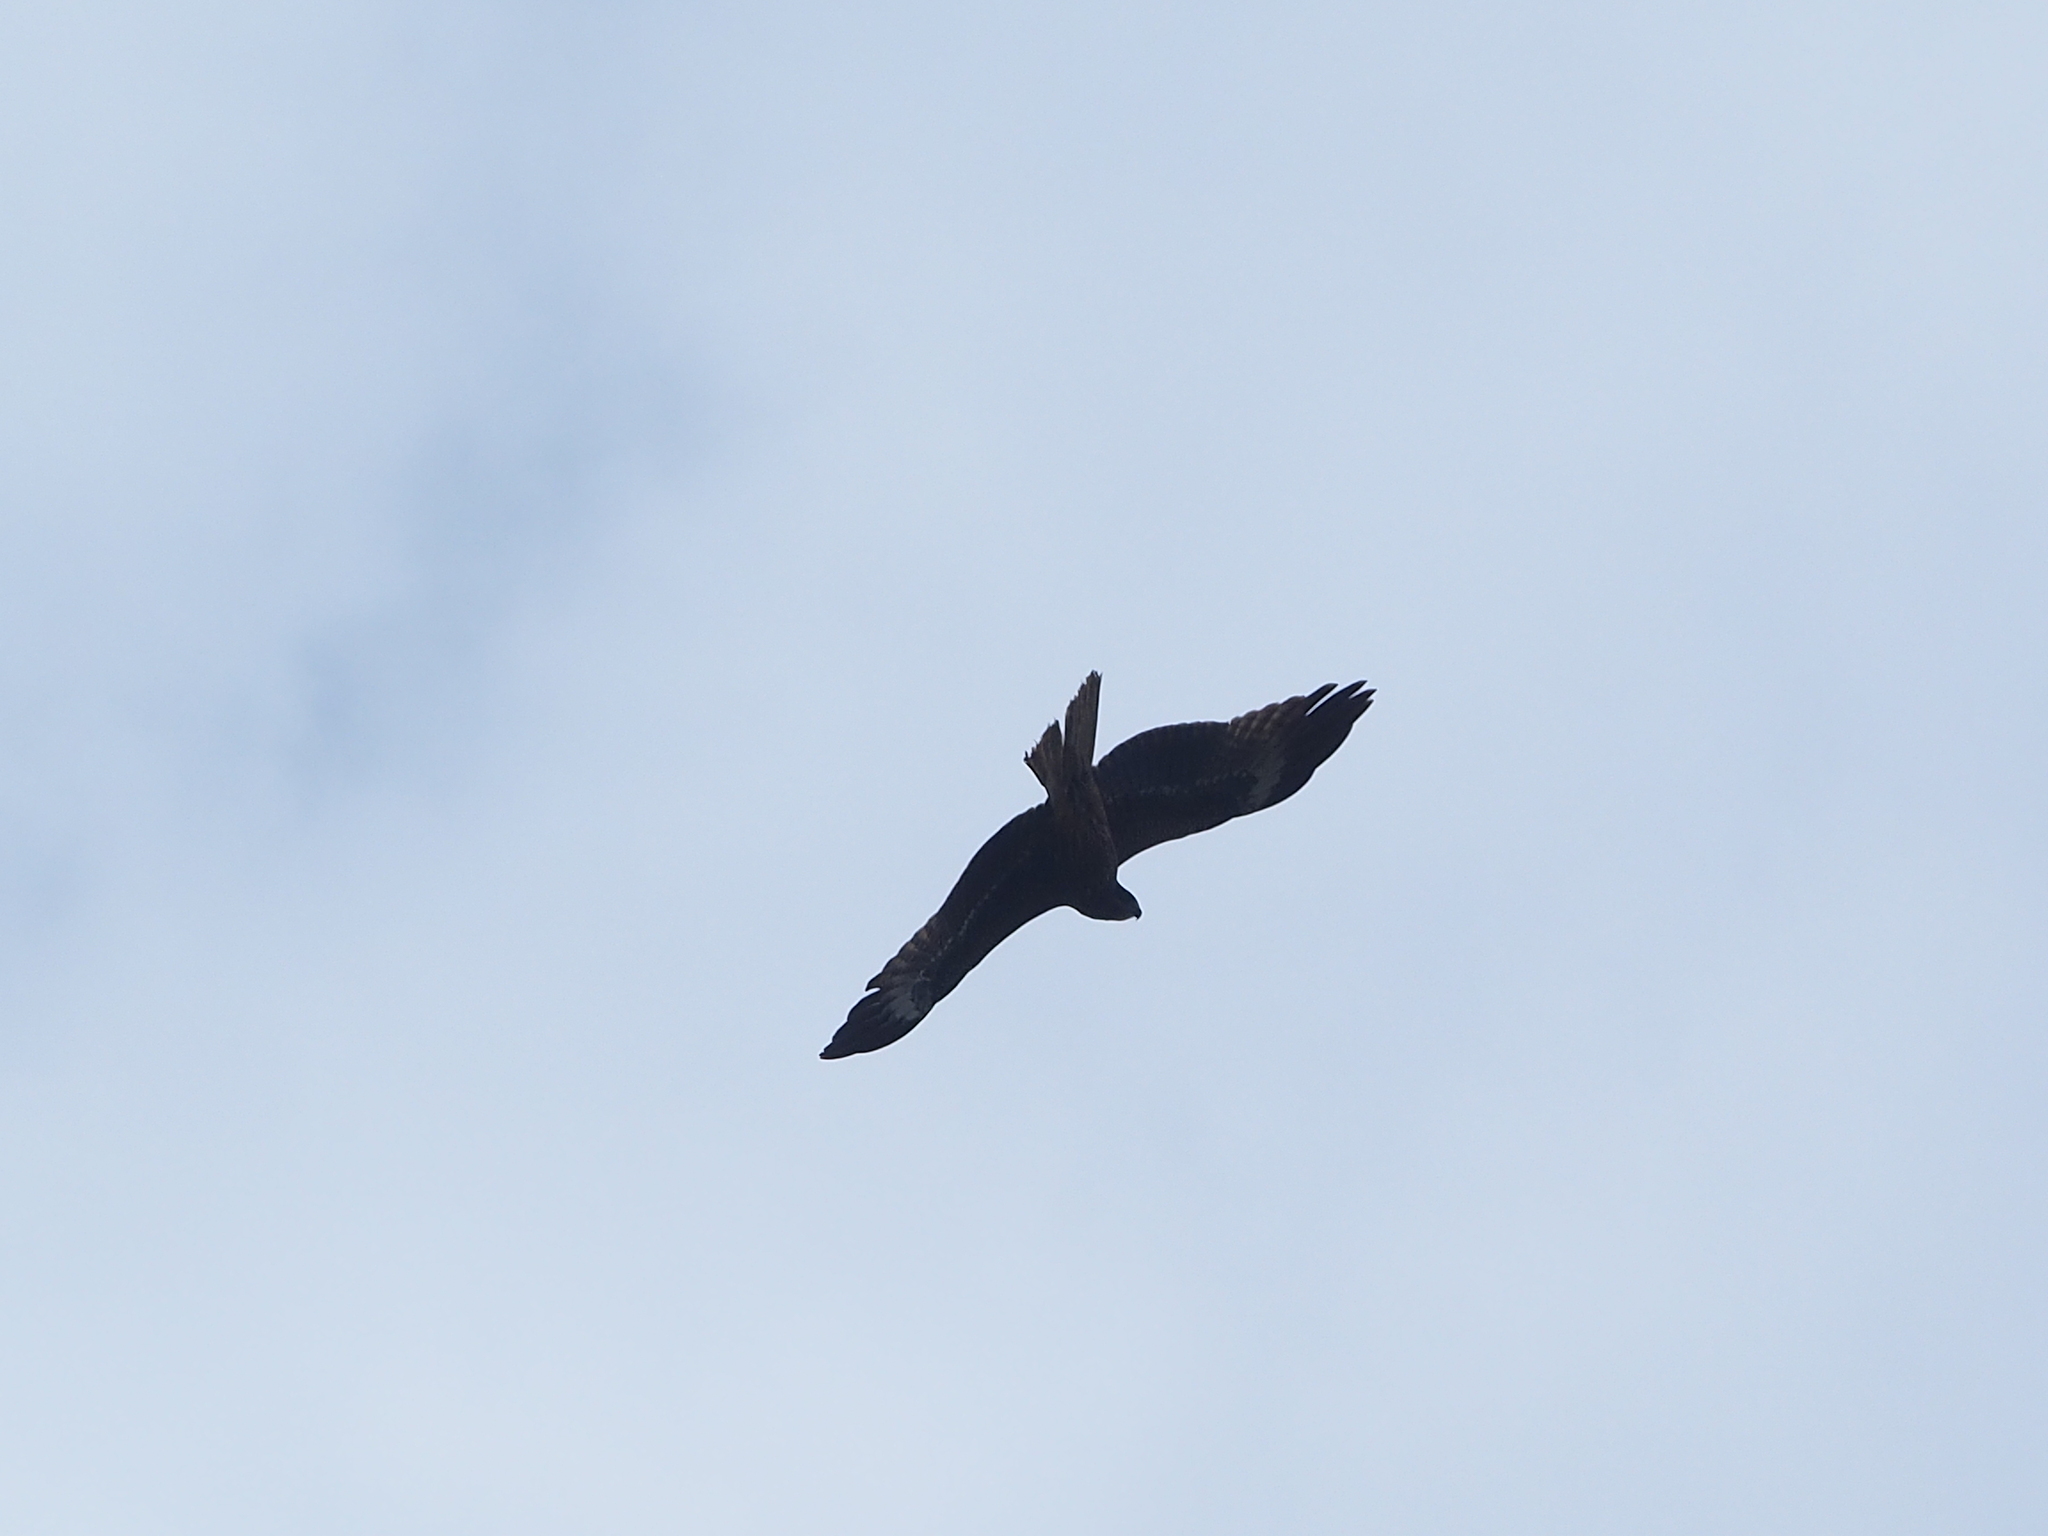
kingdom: Animalia
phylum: Chordata
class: Aves
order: Accipitriformes
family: Accipitridae
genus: Milvus
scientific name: Milvus migrans
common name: Black kite
